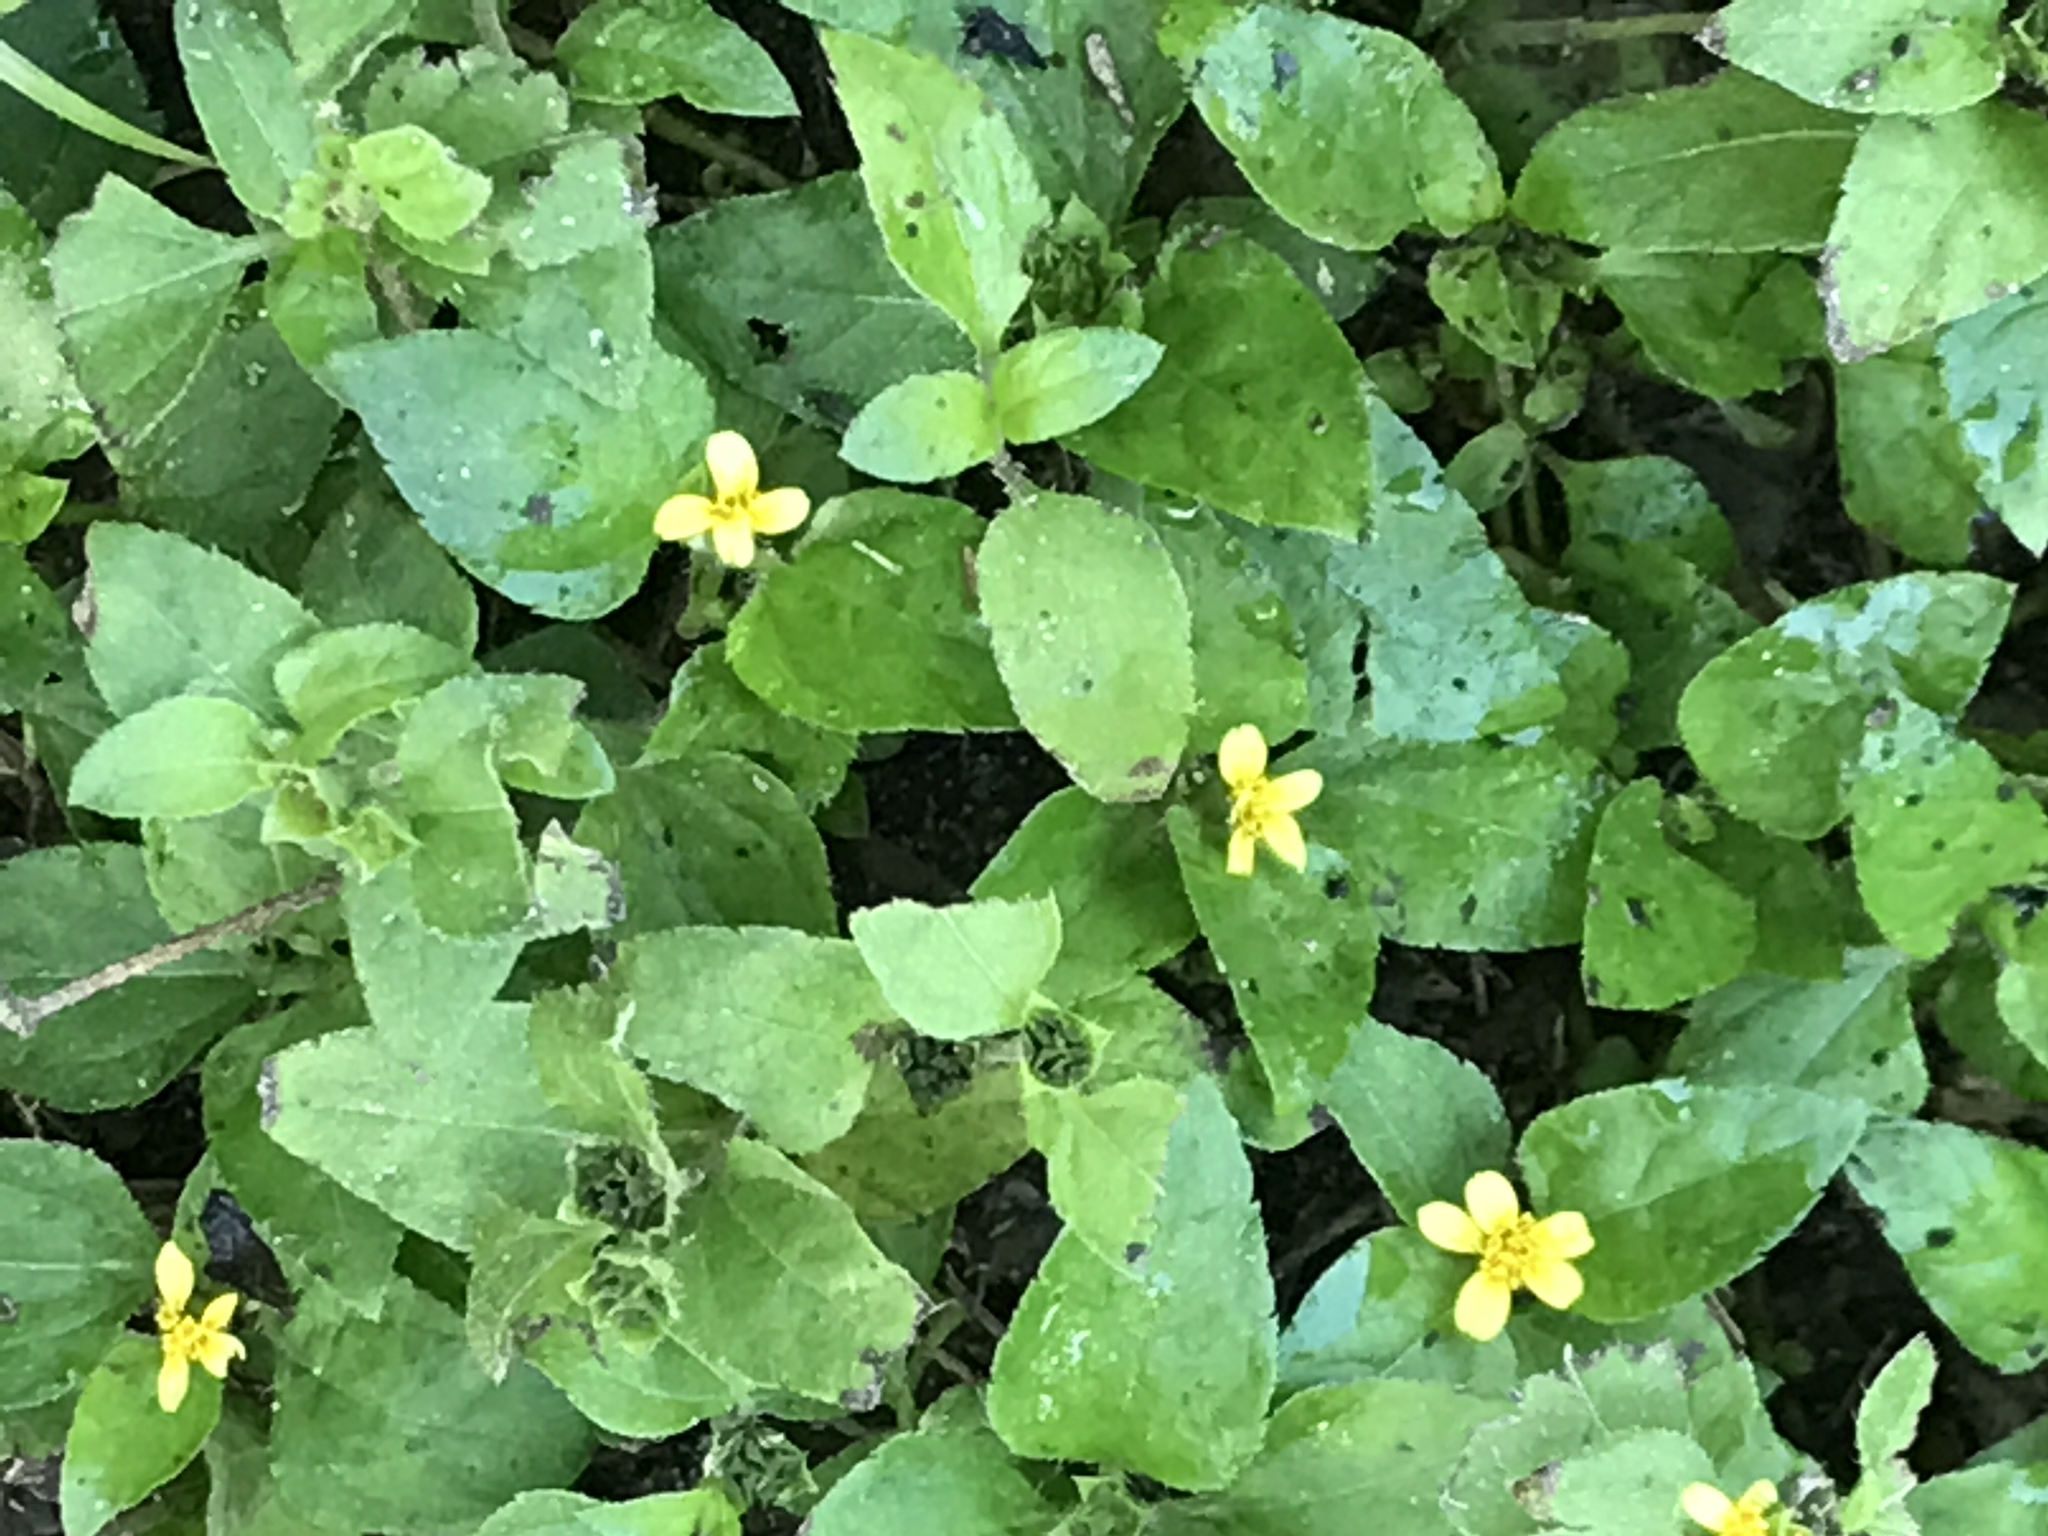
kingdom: Plantae
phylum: Tracheophyta
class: Magnoliopsida
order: Asterales
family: Asteraceae
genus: Calyptocarpus
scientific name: Calyptocarpus vialis
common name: Straggler daisy
